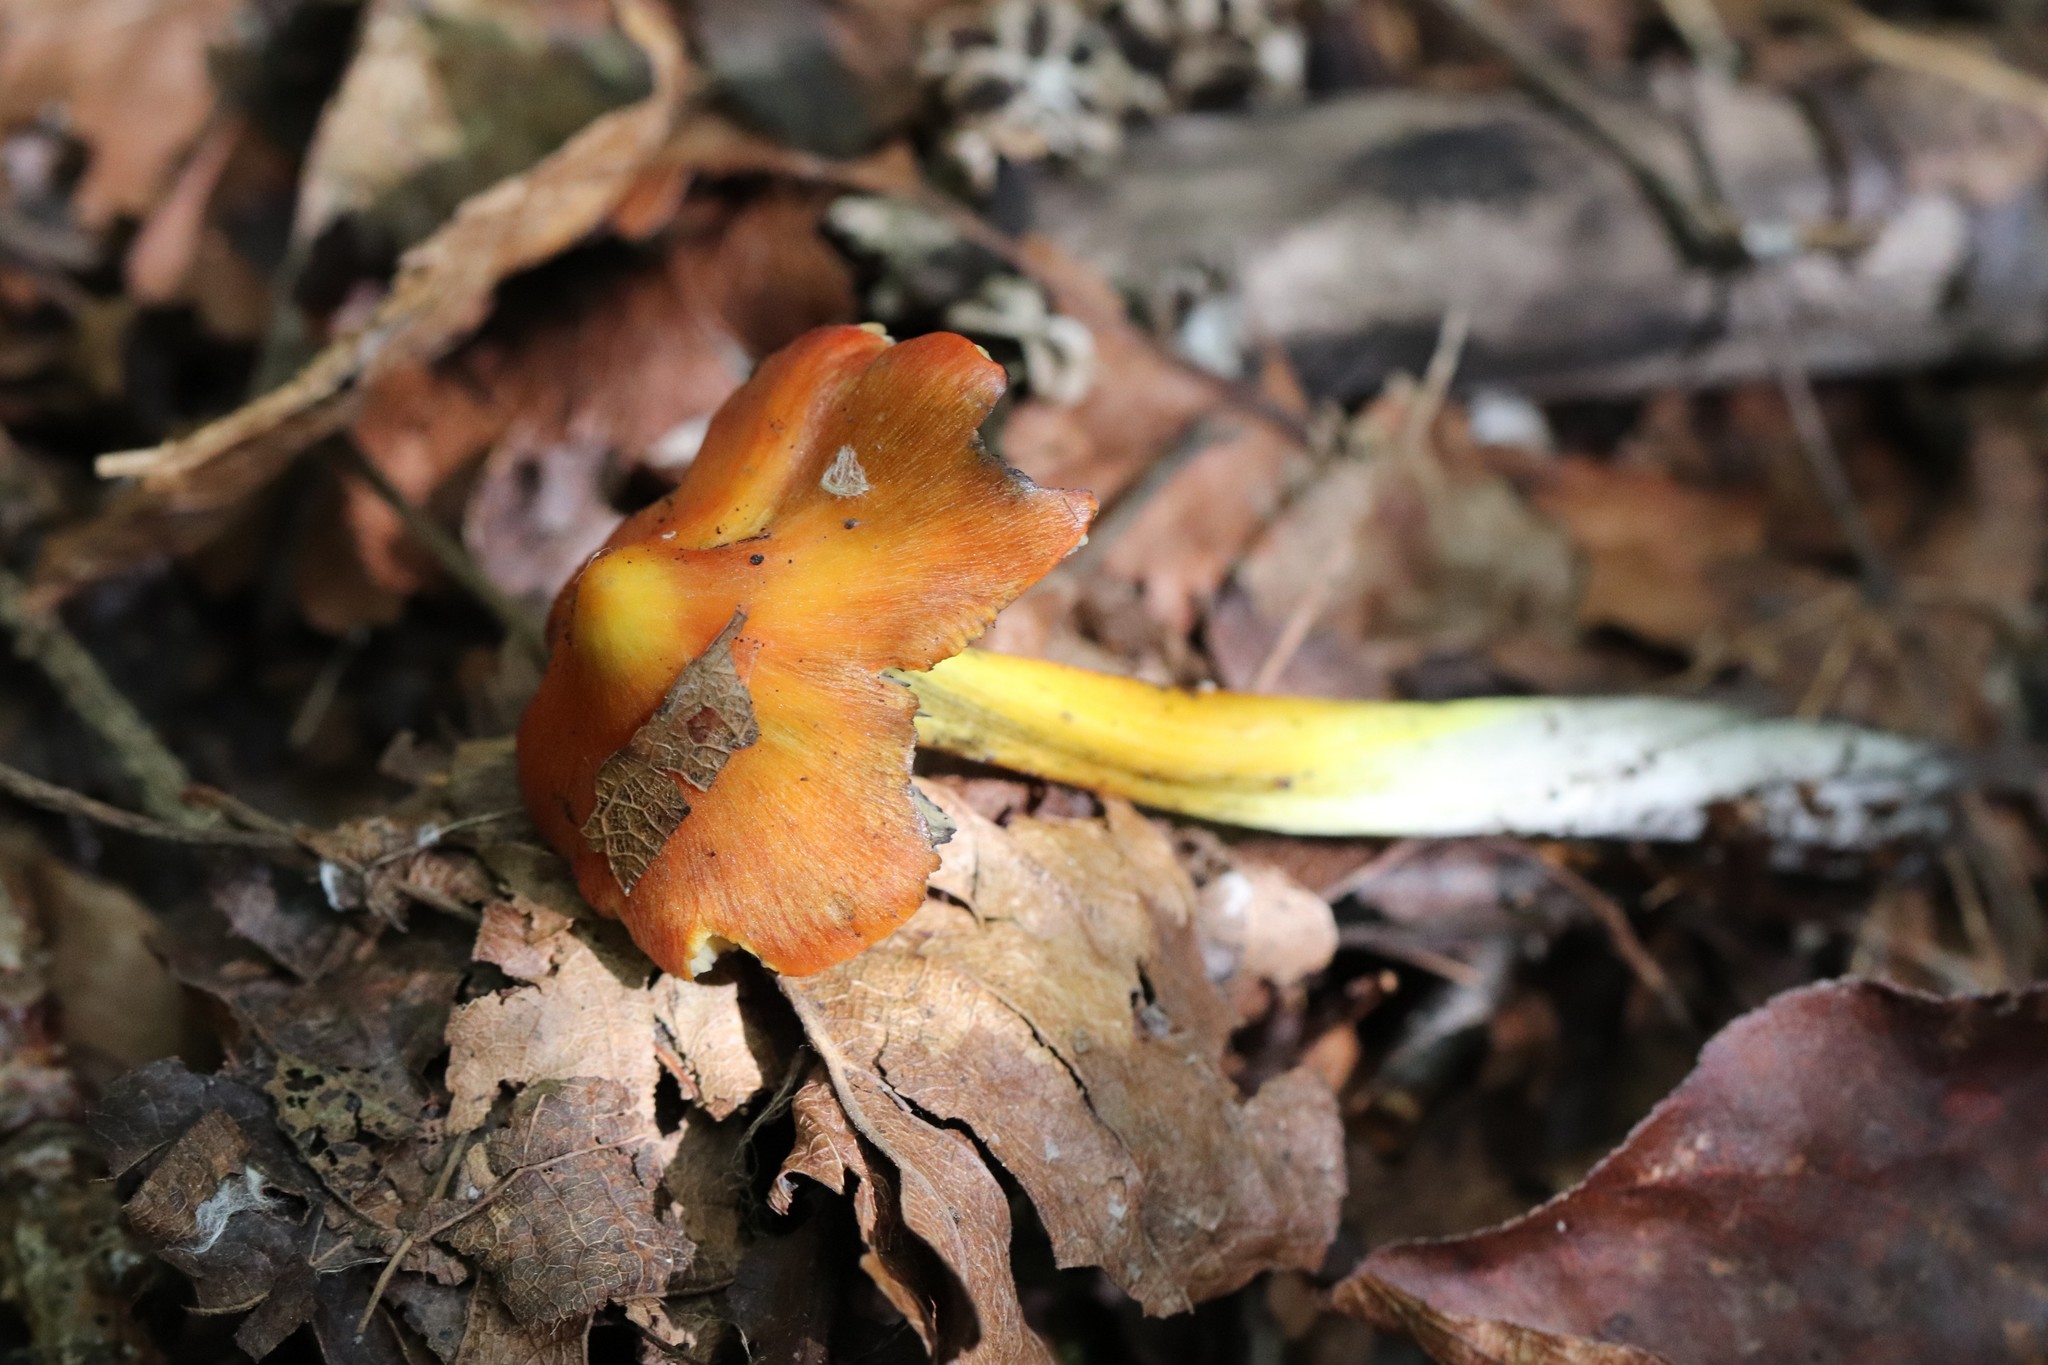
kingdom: Fungi
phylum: Basidiomycota
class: Agaricomycetes
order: Agaricales
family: Hygrophoraceae
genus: Hygrocybe
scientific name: Hygrocybe conica
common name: Blackening wax-cap
